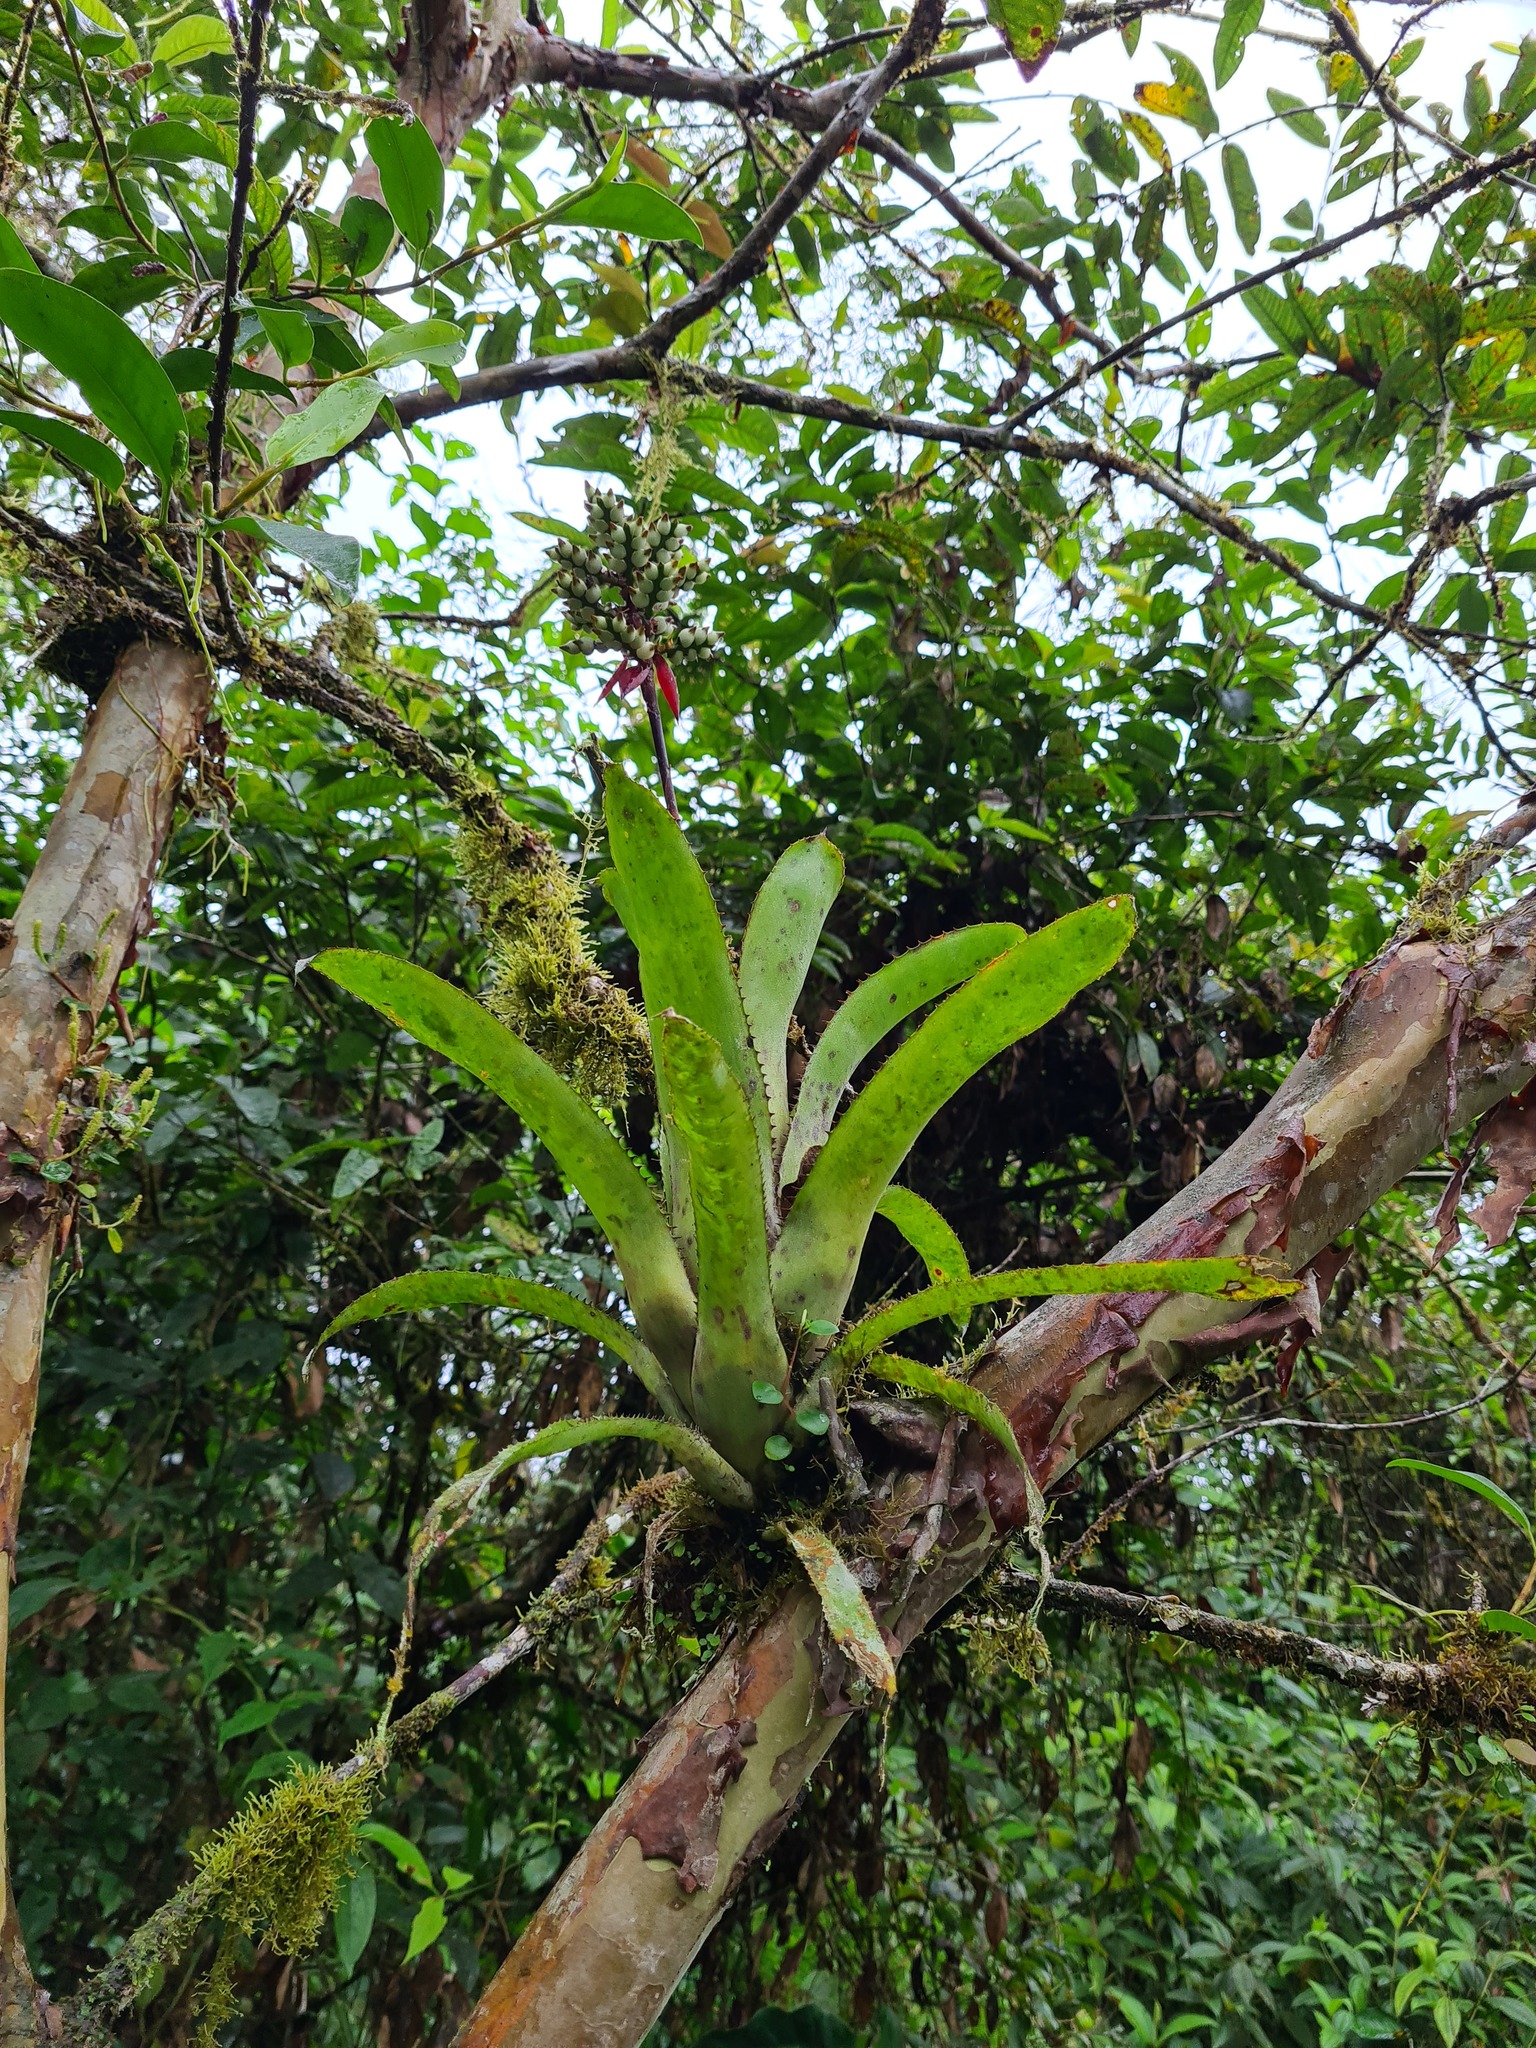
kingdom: Plantae
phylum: Tracheophyta
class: Liliopsida
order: Poales
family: Bromeliaceae
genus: Aechmea
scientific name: Aechmea angustifolia
